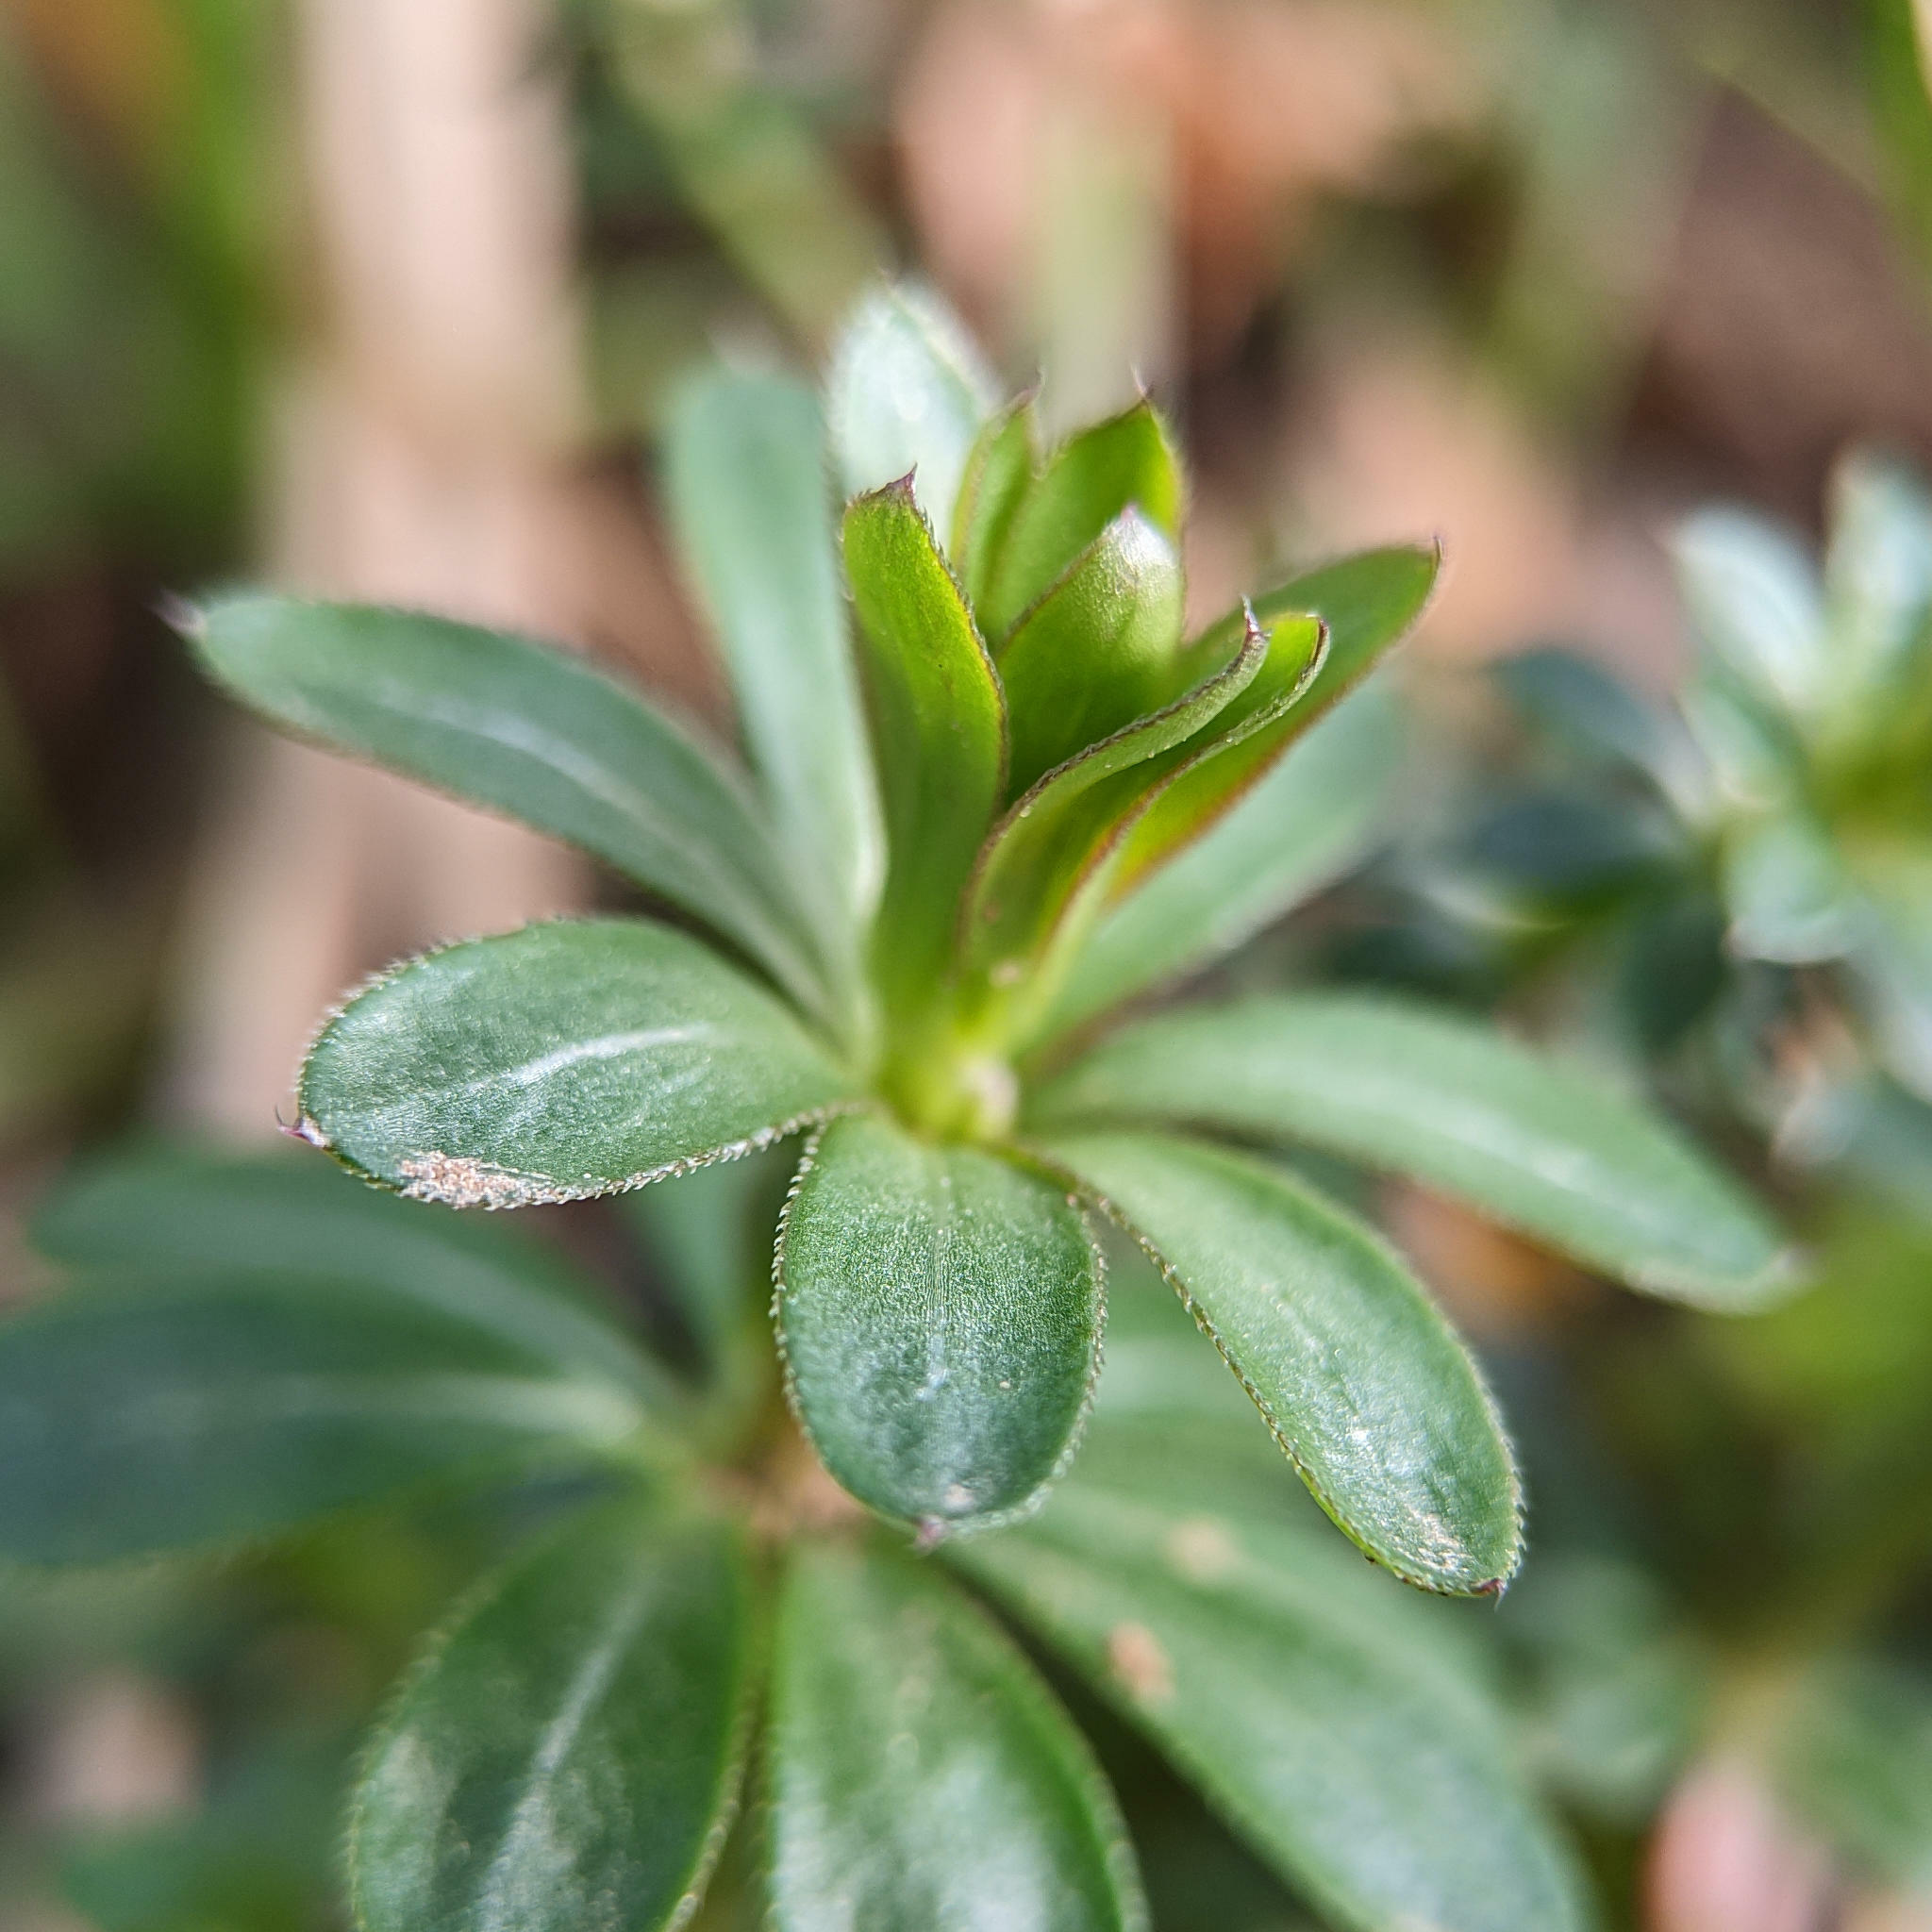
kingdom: Plantae
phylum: Tracheophyta
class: Magnoliopsida
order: Gentianales
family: Rubiaceae
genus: Galium
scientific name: Galium mollugo
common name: Hedge bedstraw
